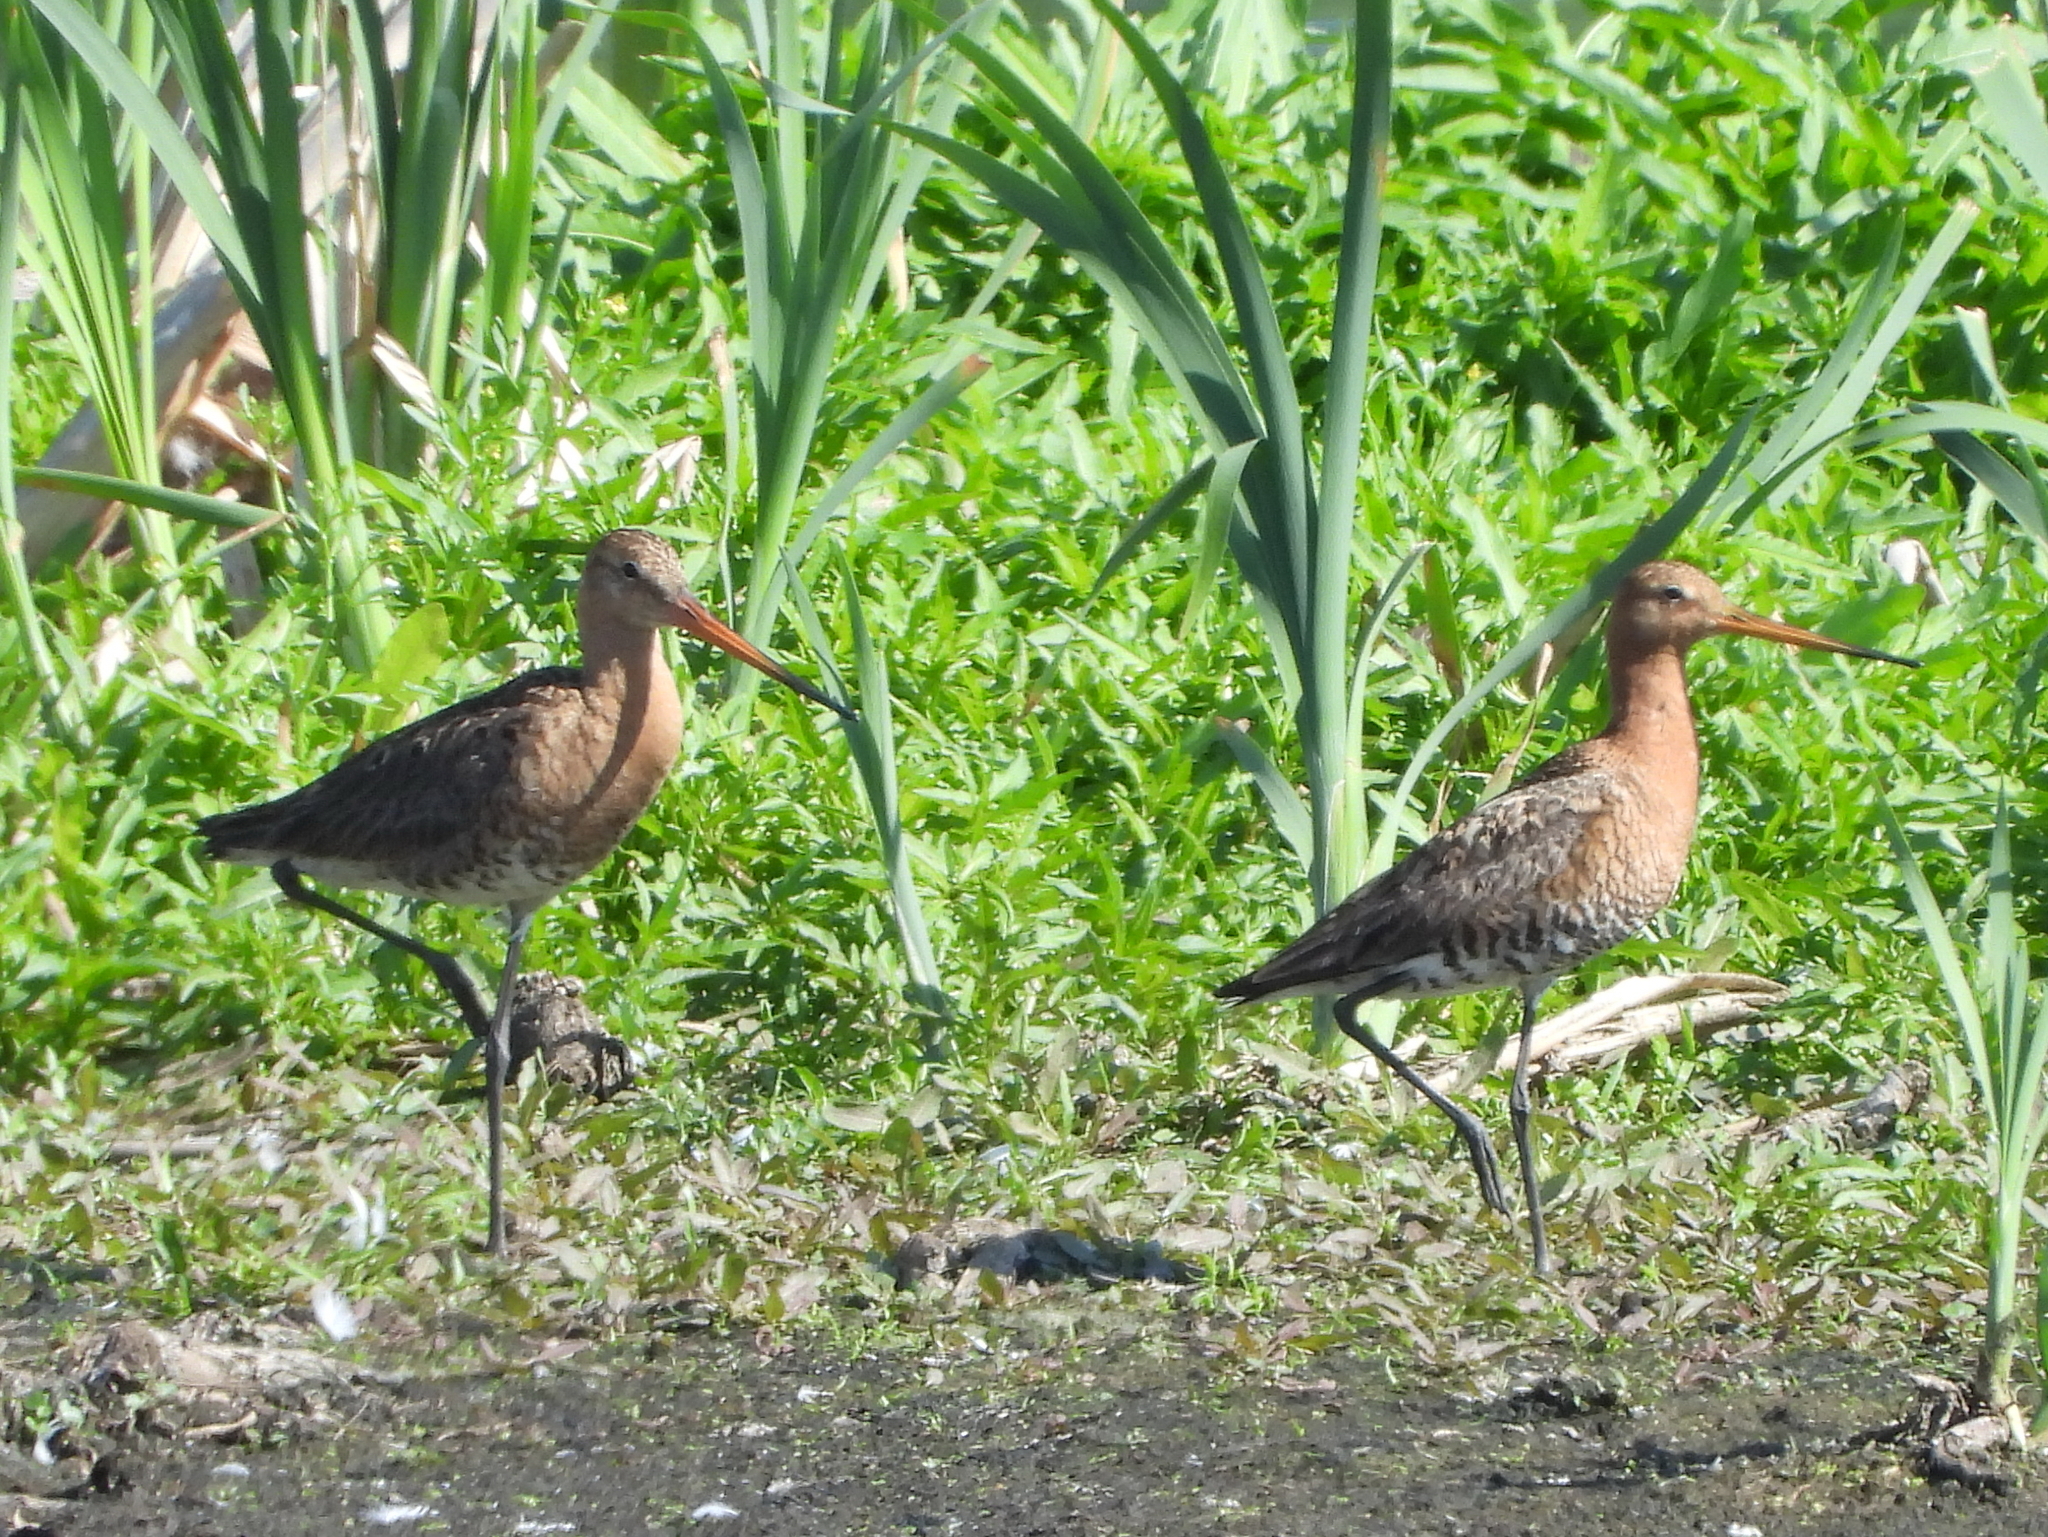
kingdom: Animalia
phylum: Chordata
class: Aves
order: Charadriiformes
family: Scolopacidae
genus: Limosa
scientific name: Limosa limosa
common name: Black-tailed godwit
